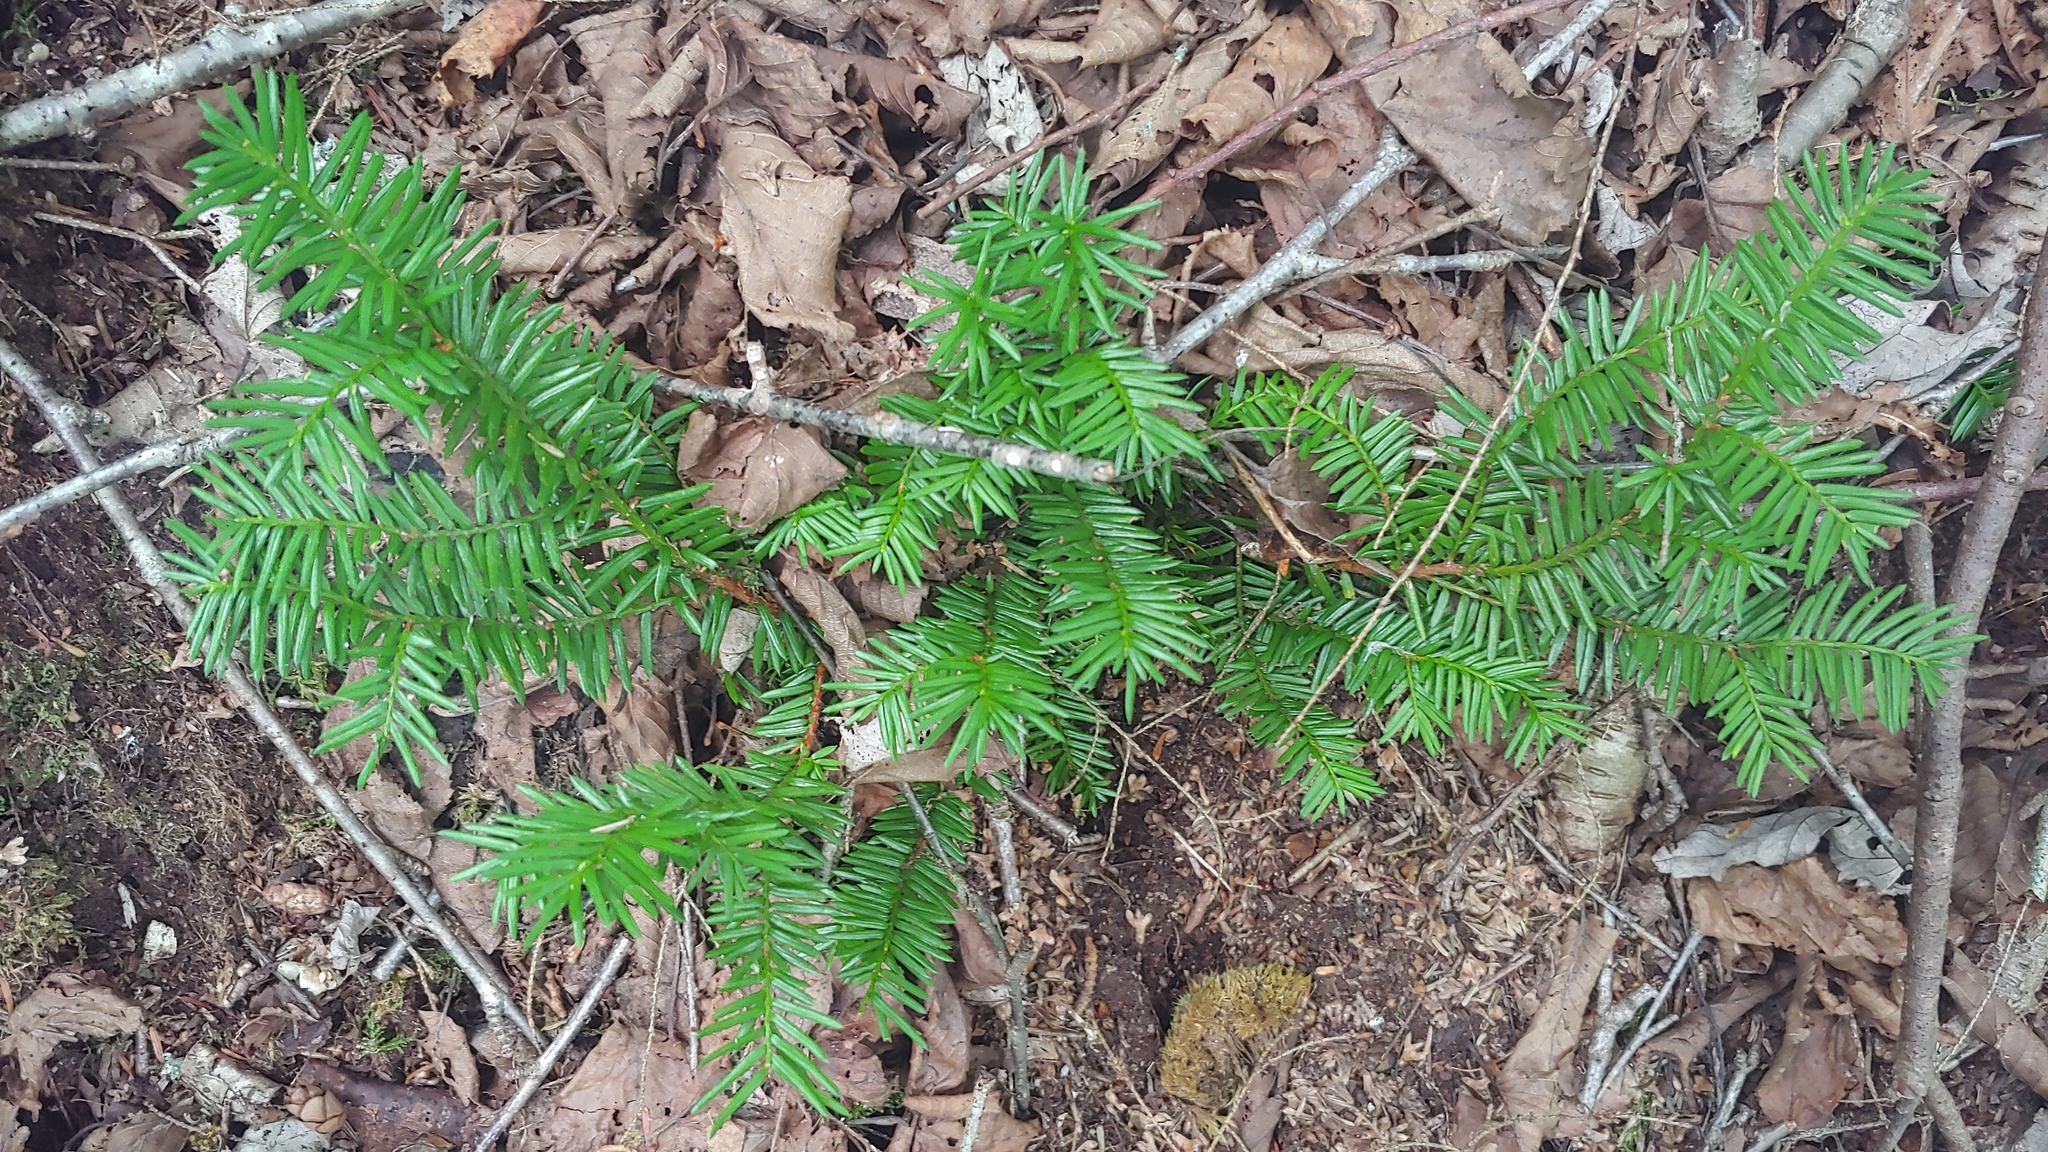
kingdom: Plantae
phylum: Tracheophyta
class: Pinopsida
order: Pinales
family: Taxaceae
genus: Taxus
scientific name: Taxus canadensis
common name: American yew
